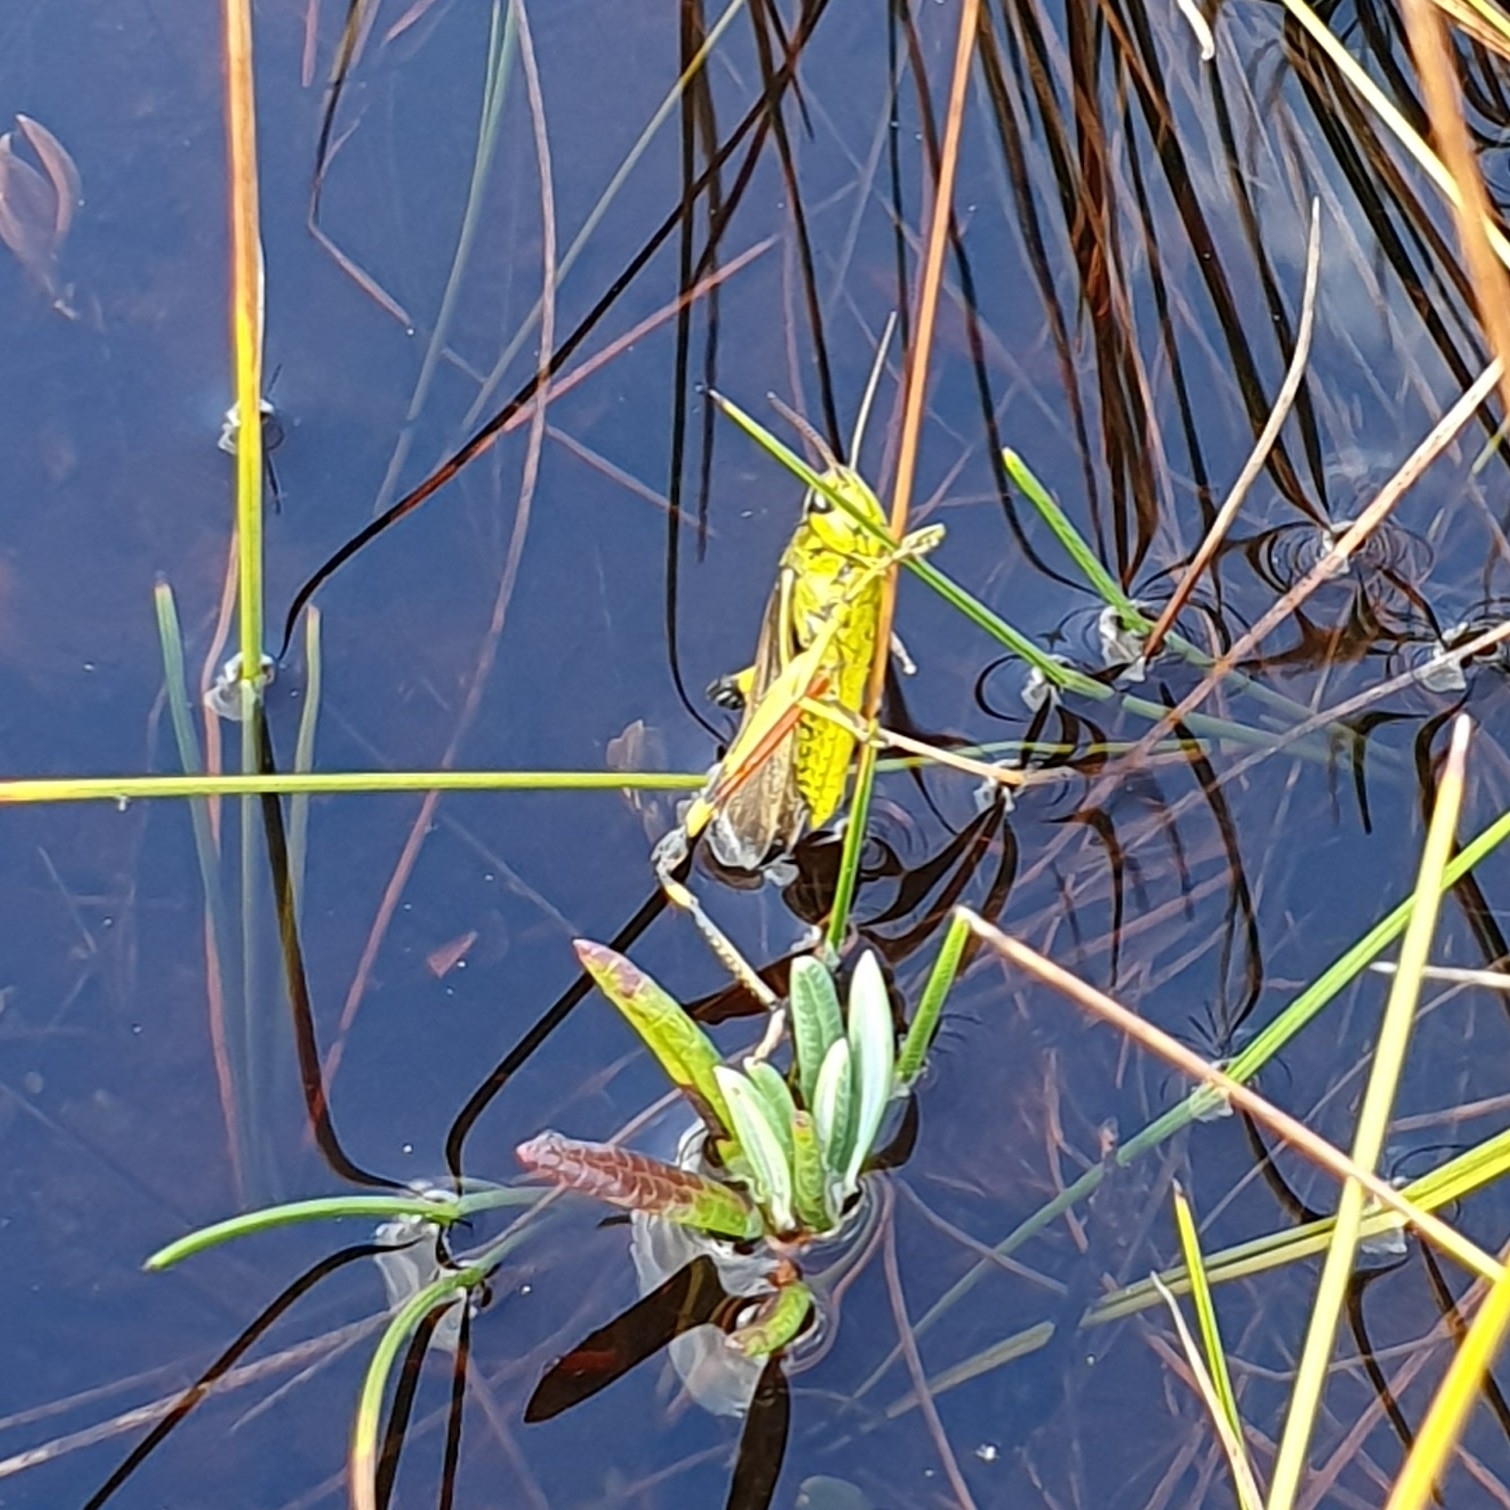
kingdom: Animalia
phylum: Arthropoda
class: Insecta
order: Orthoptera
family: Acrididae
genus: Stethophyma
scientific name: Stethophyma grossum
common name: Large marsh grasshopper
